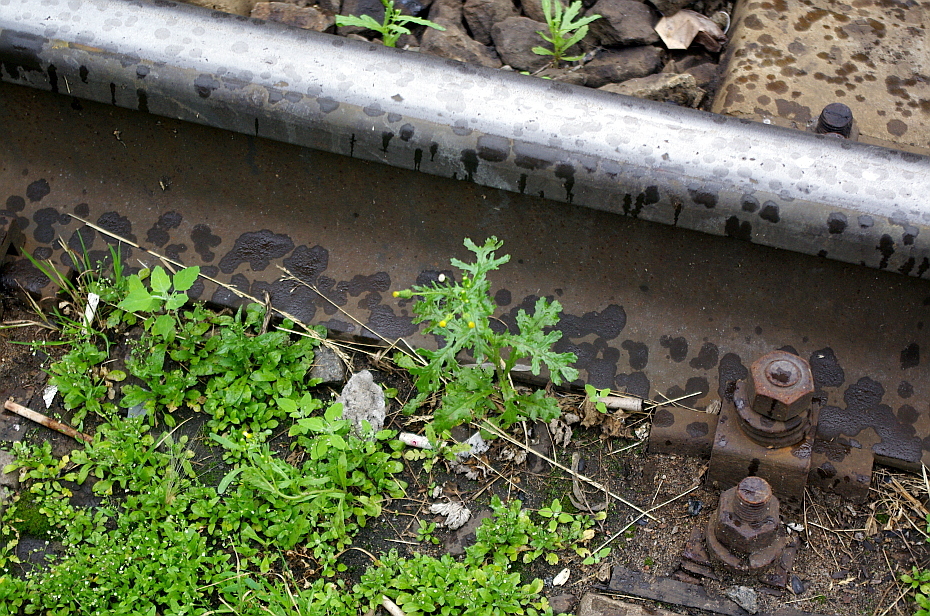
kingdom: Plantae
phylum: Tracheophyta
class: Magnoliopsida
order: Asterales
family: Asteraceae
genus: Senecio
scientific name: Senecio vulgaris
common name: Old-man-in-the-spring
